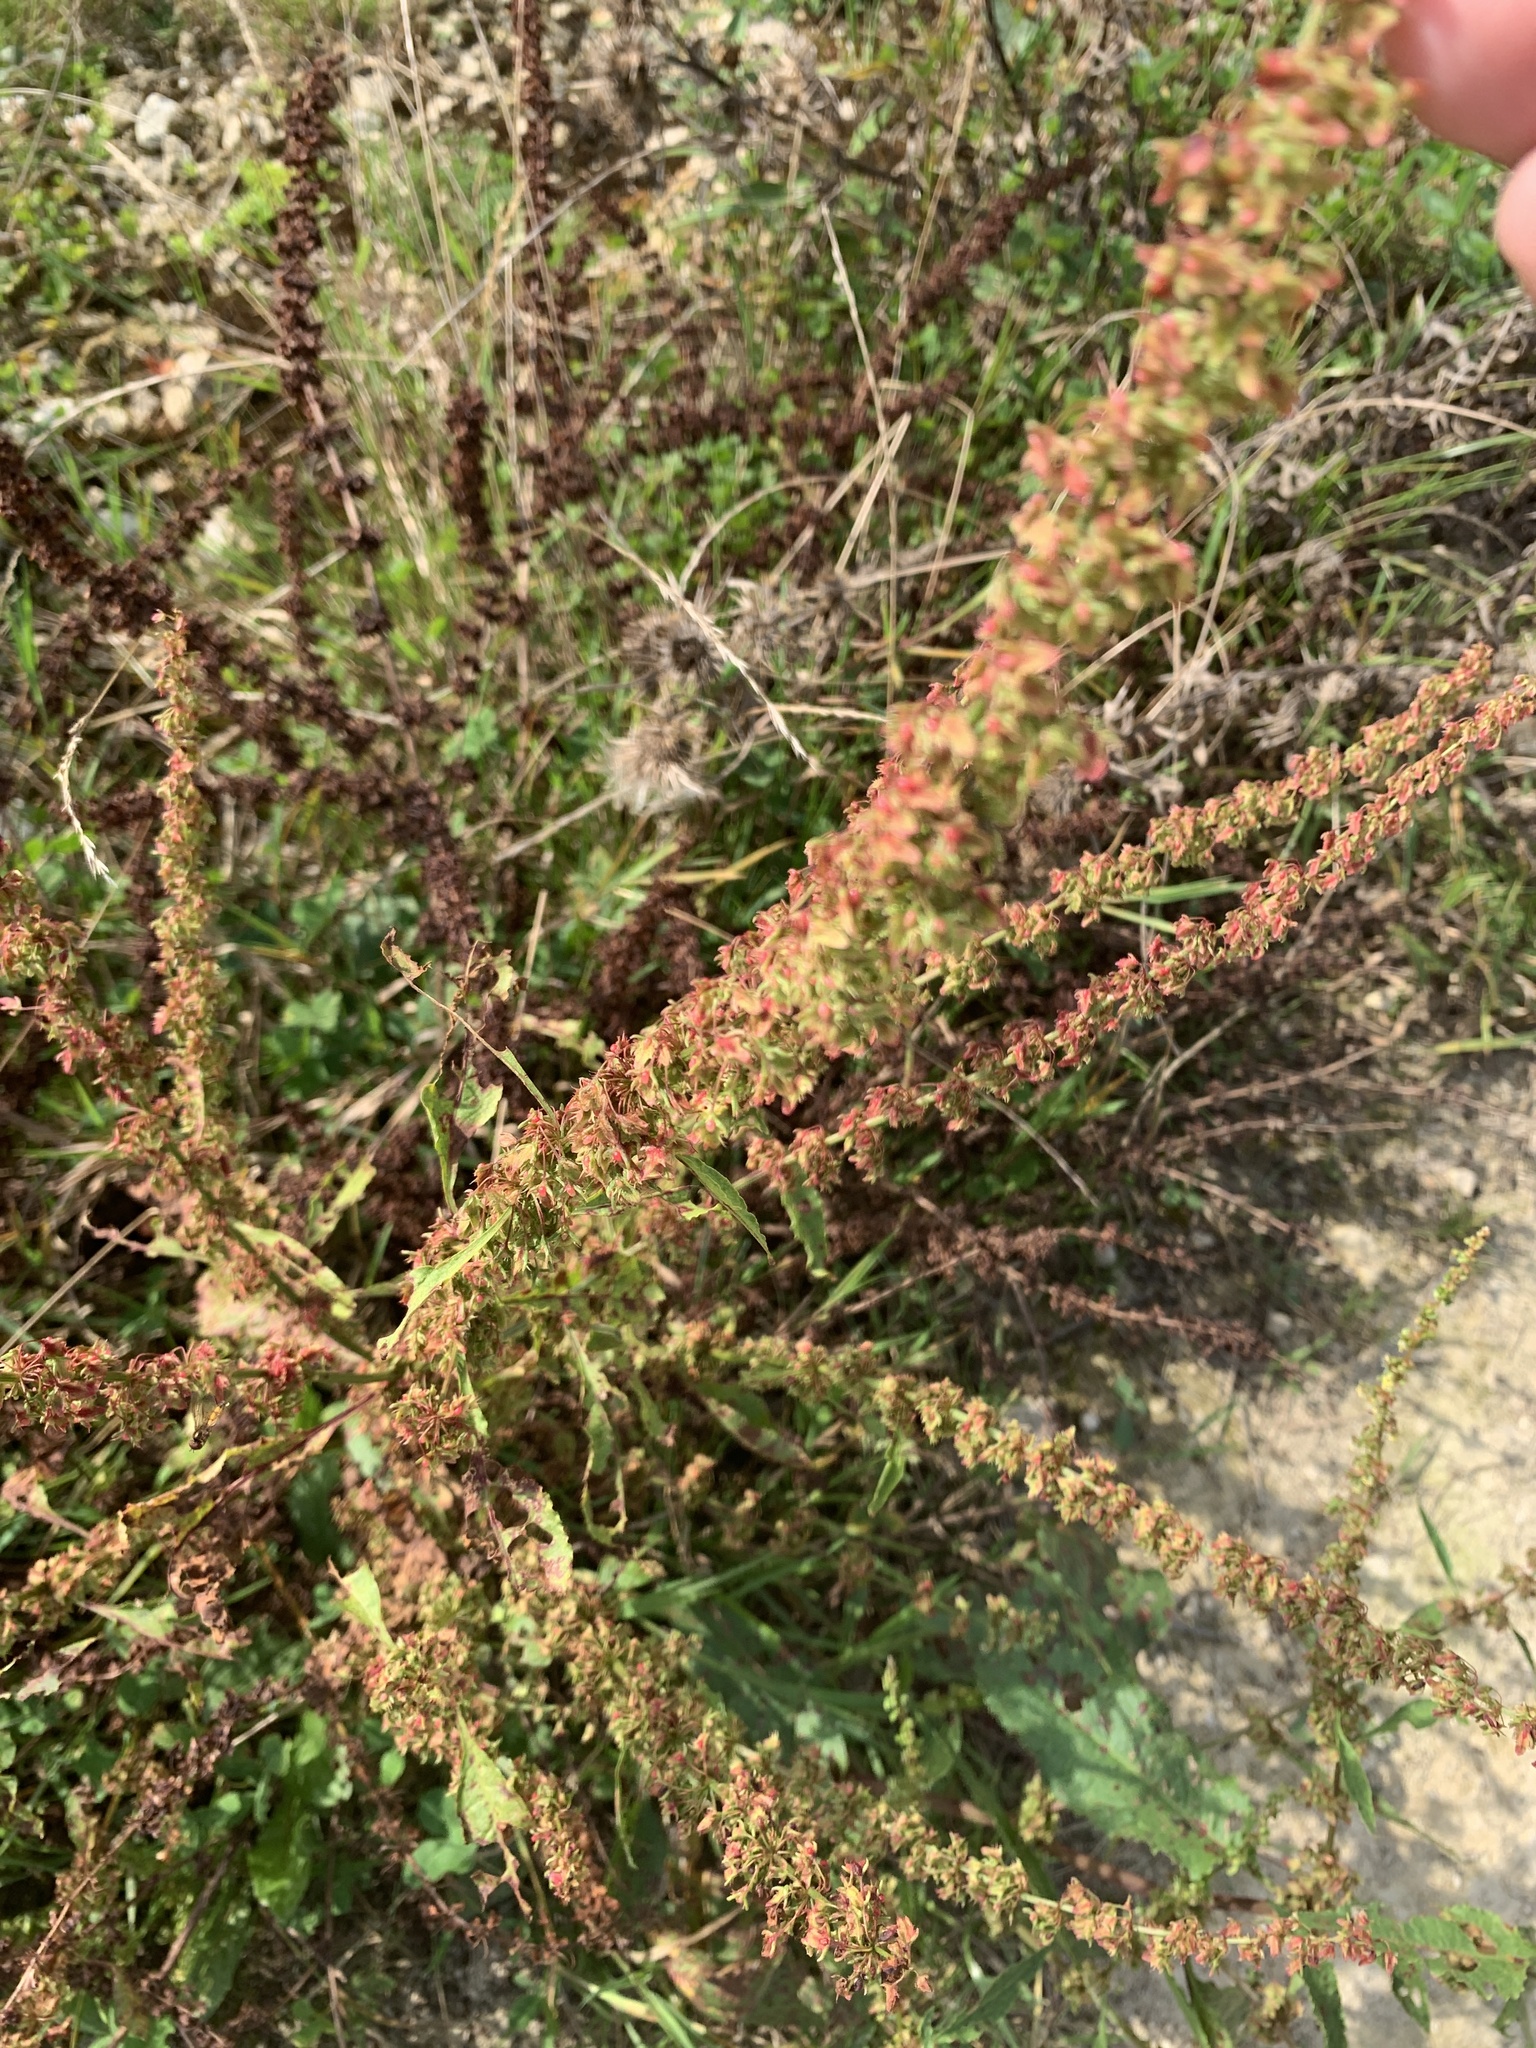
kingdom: Plantae
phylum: Tracheophyta
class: Magnoliopsida
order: Caryophyllales
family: Polygonaceae
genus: Rumex
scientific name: Rumex crispus
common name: Curled dock
